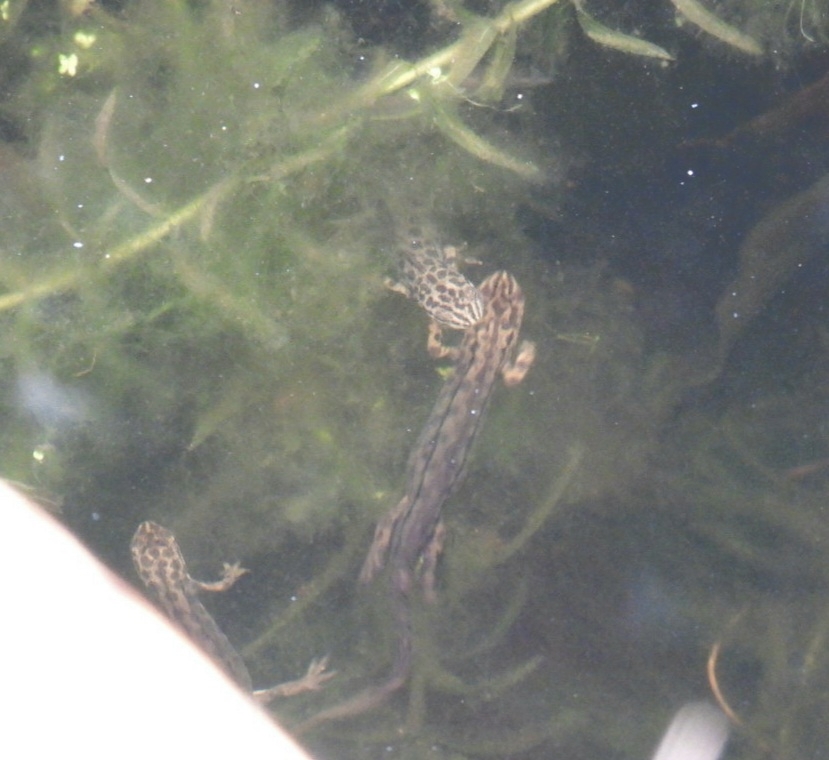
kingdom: Animalia
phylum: Chordata
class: Amphibia
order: Caudata
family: Salamandridae
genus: Lissotriton
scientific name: Lissotriton vulgaris
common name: Smooth newt
